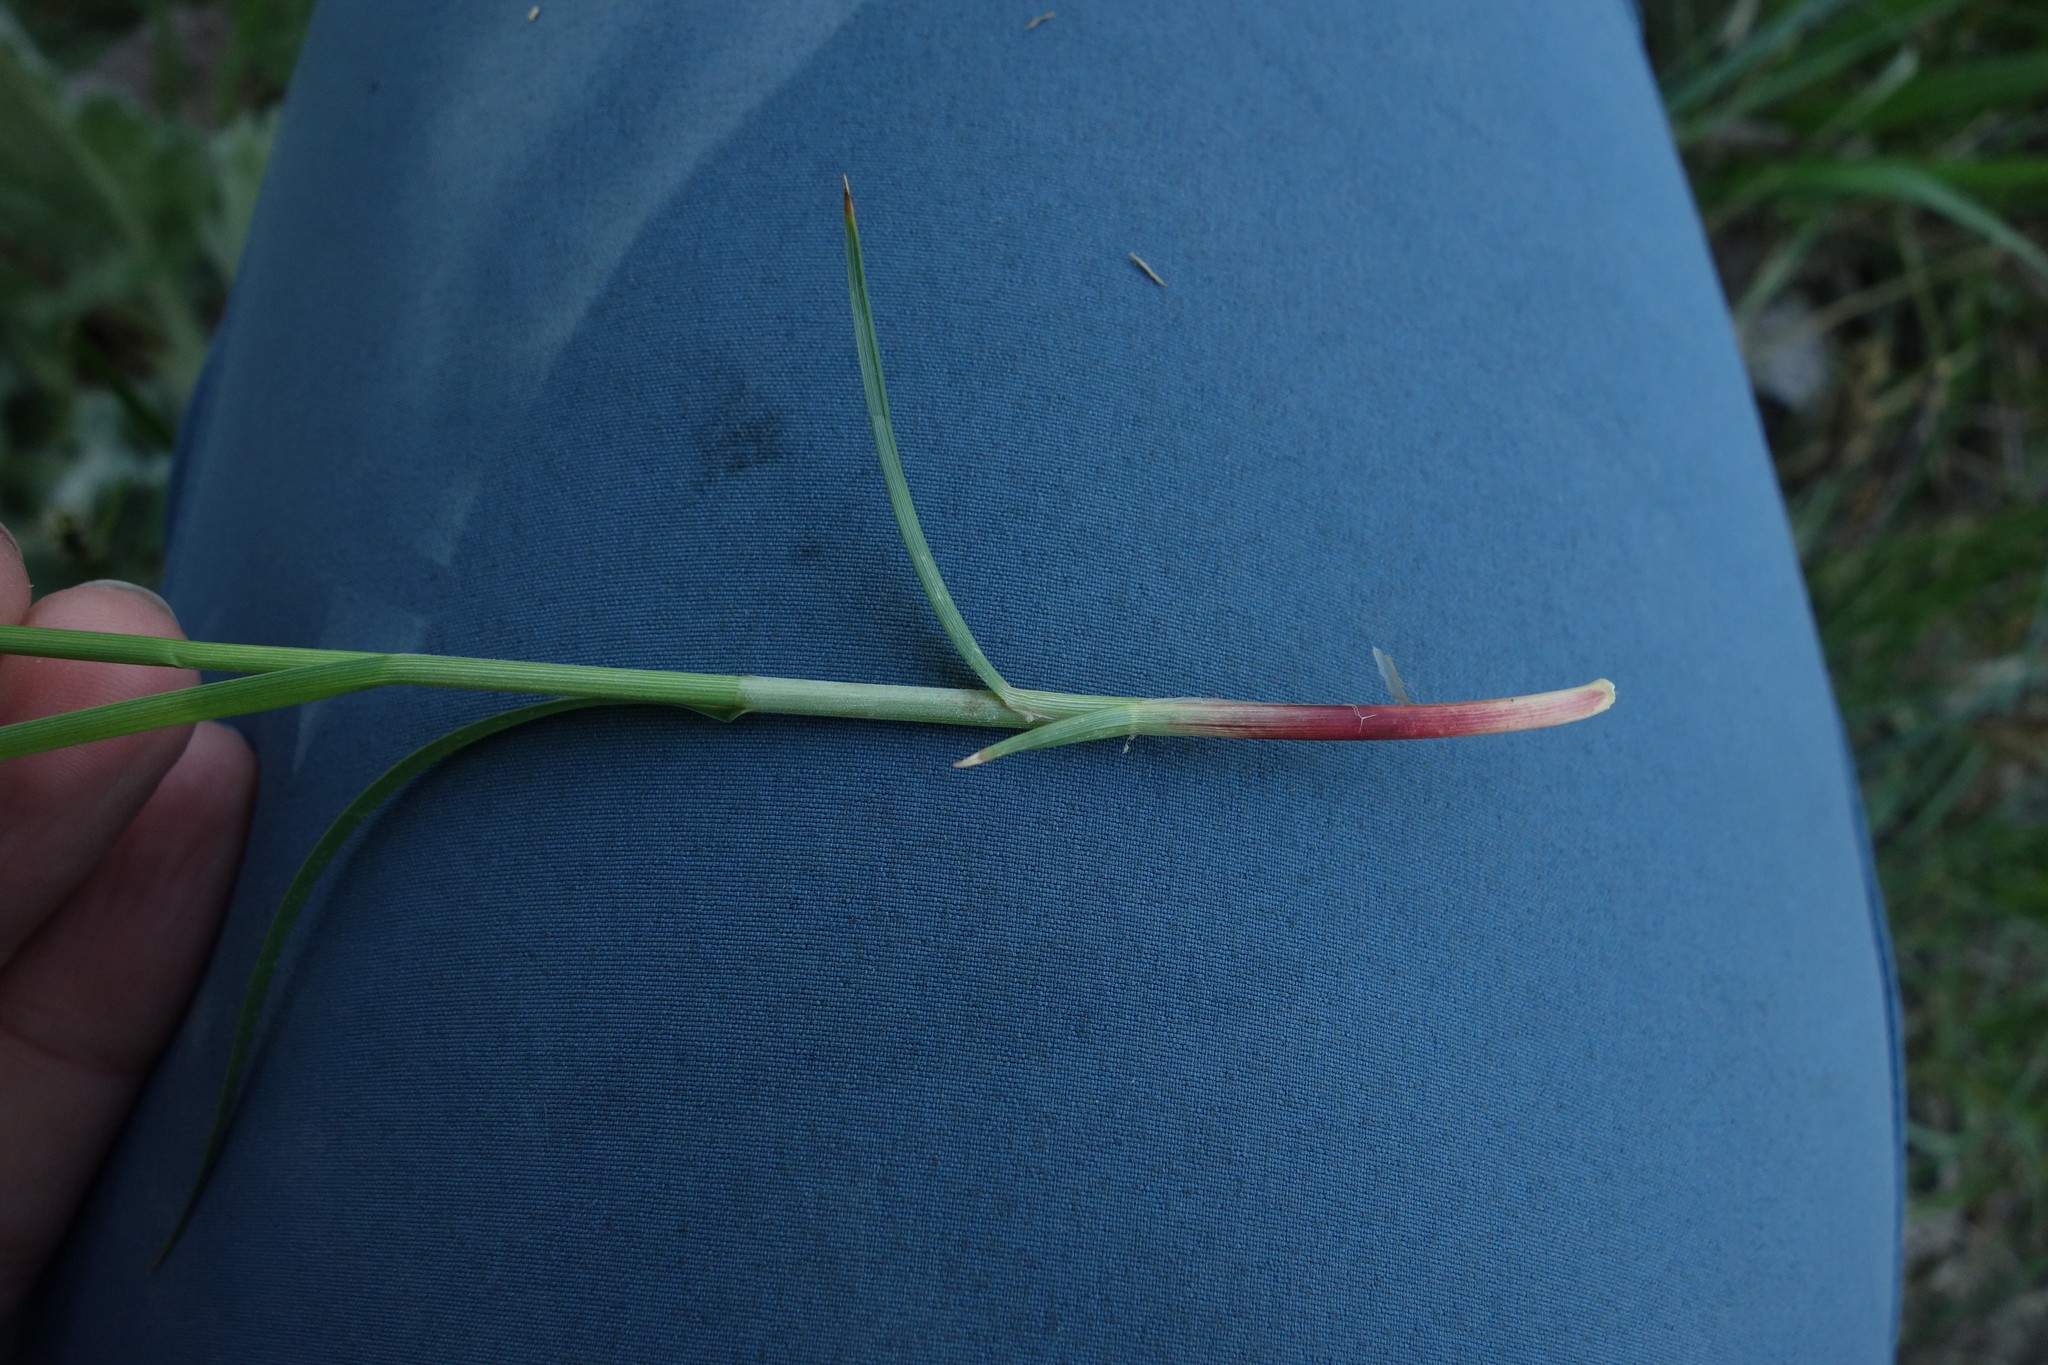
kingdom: Plantae
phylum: Tracheophyta
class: Liliopsida
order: Poales
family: Cyperaceae
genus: Carex
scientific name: Carex melanostachya
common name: Black-spiked sedge
